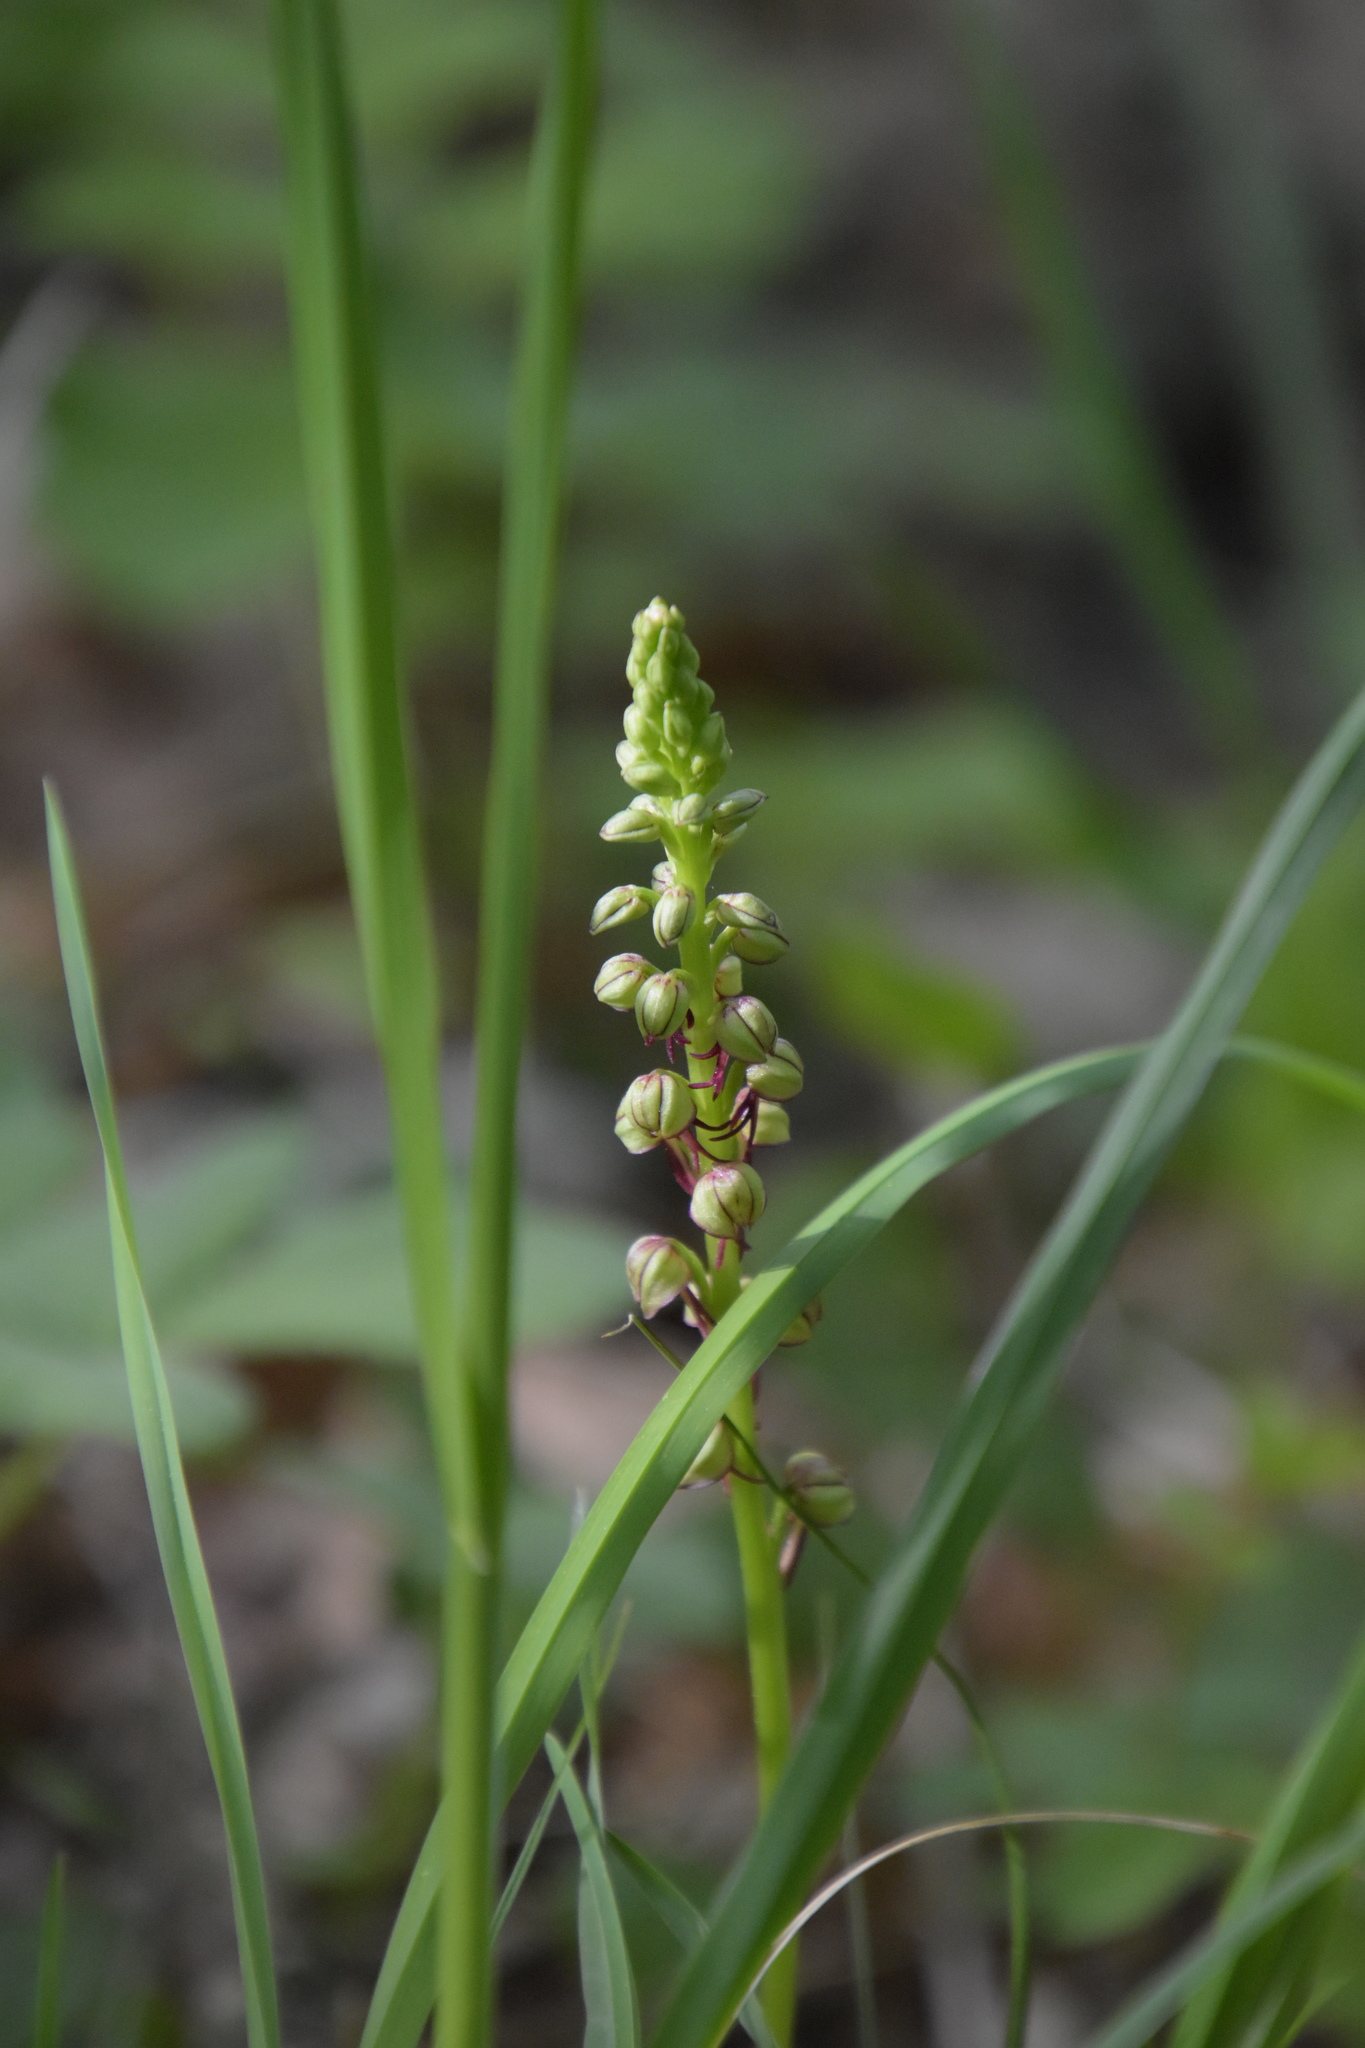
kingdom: Plantae
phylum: Tracheophyta
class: Liliopsida
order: Asparagales
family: Orchidaceae
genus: Orchis
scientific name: Orchis anthropophora
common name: Man orchid
